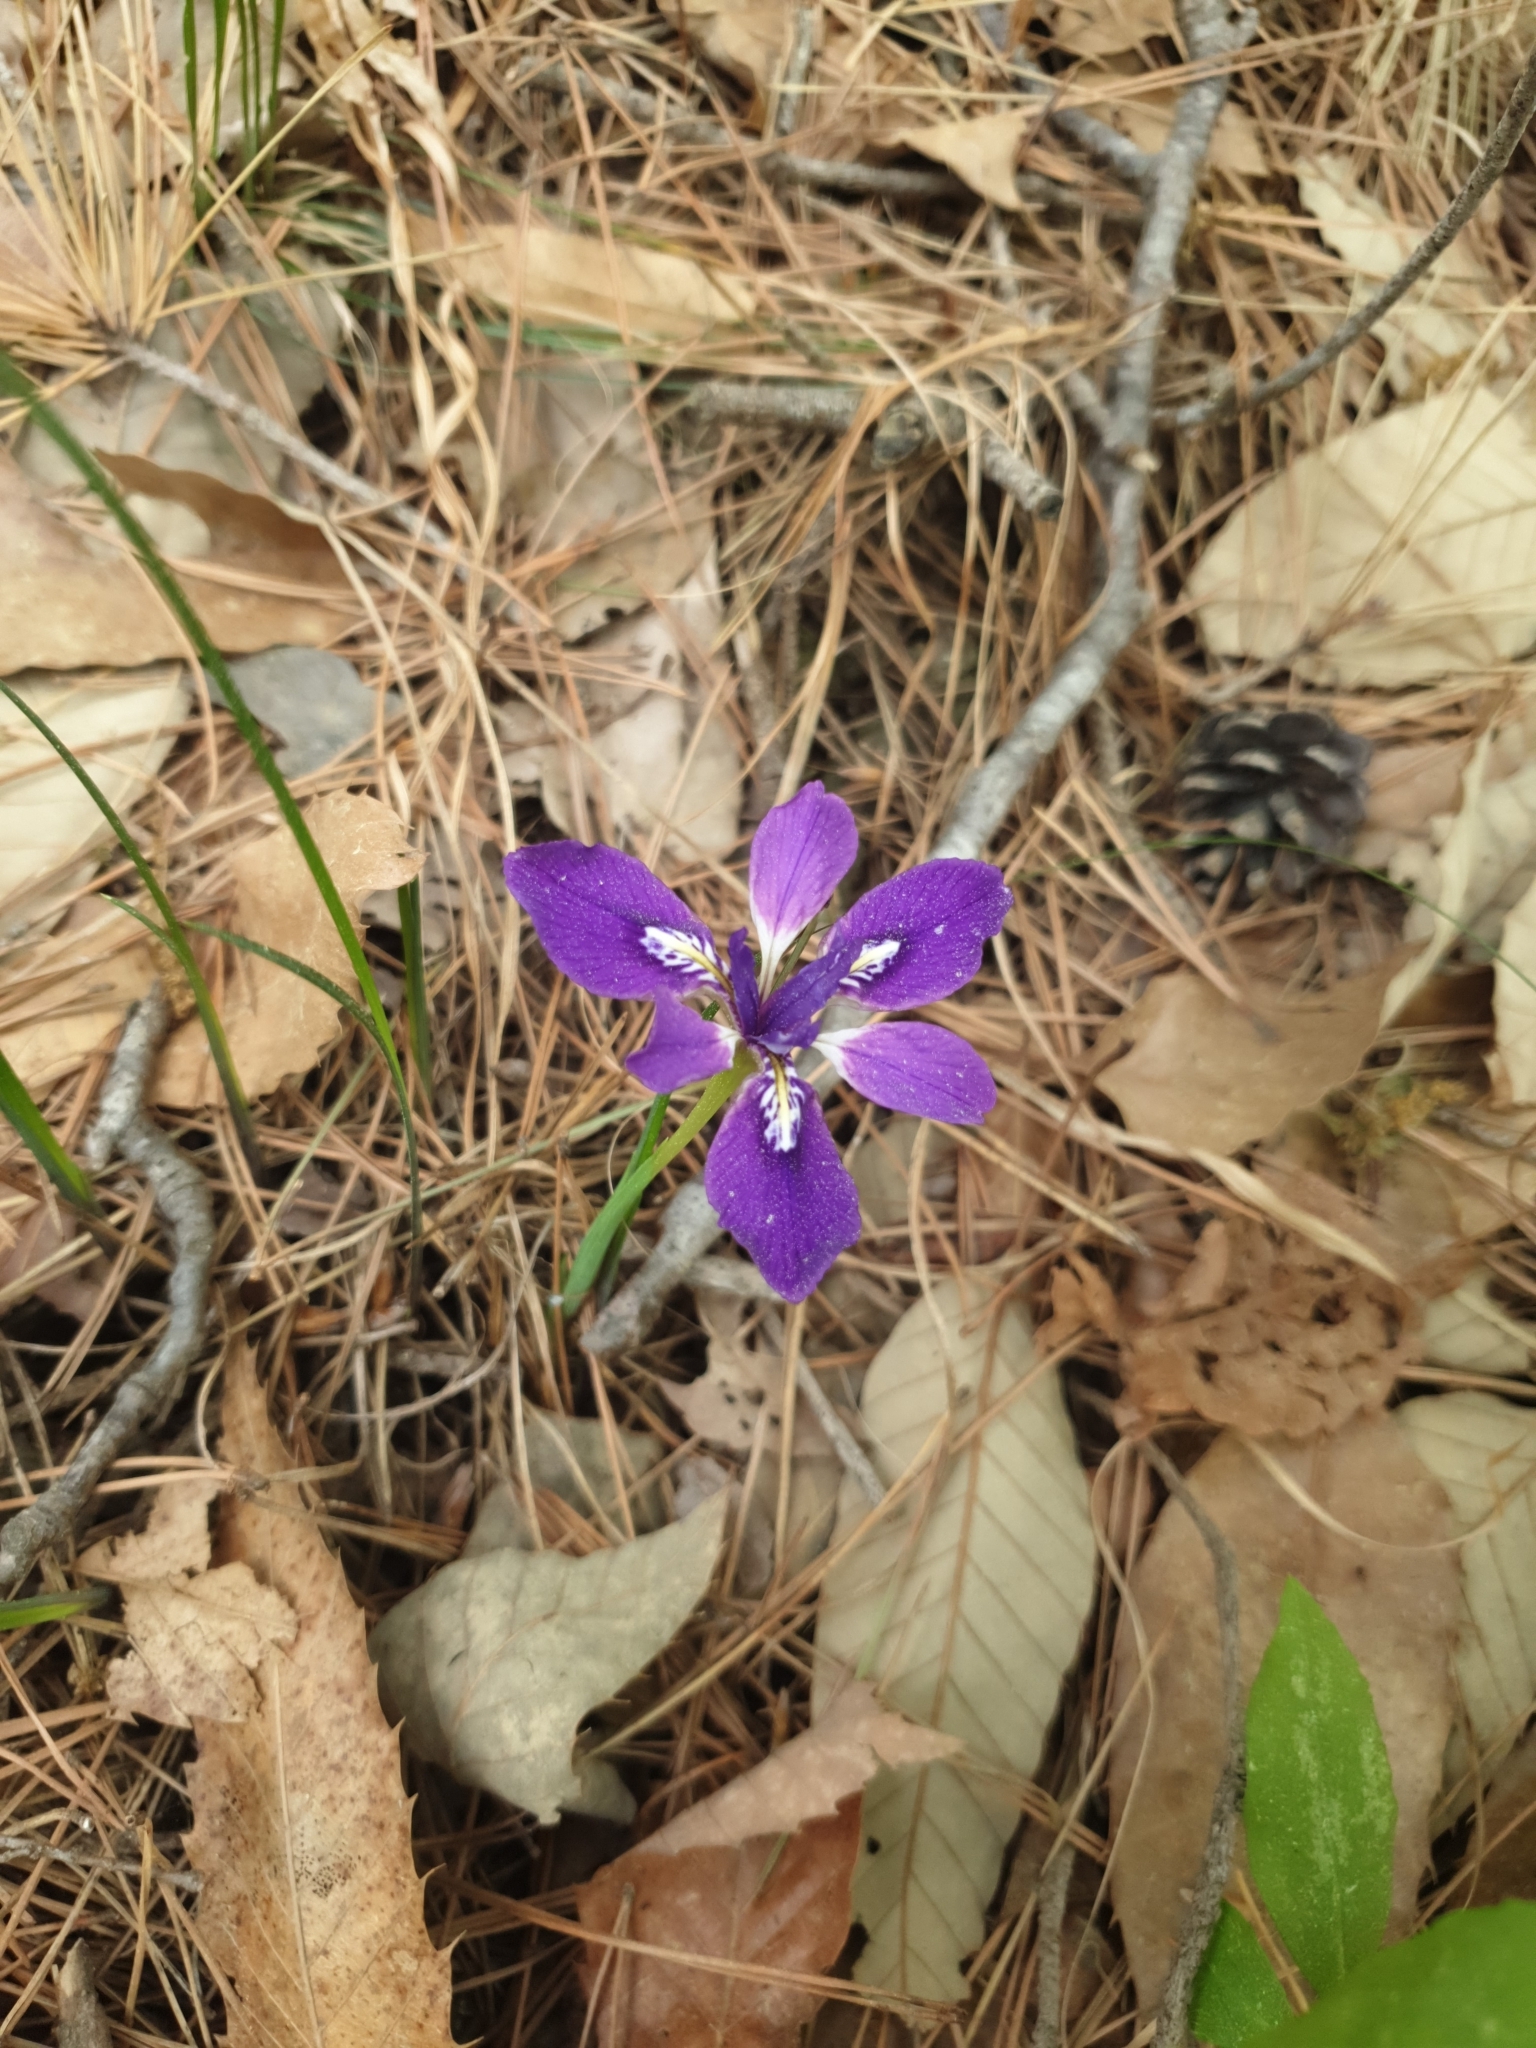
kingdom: Plantae
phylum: Tracheophyta
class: Liliopsida
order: Asparagales
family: Iridaceae
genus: Iris
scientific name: Iris rossii
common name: Long-tail iris
